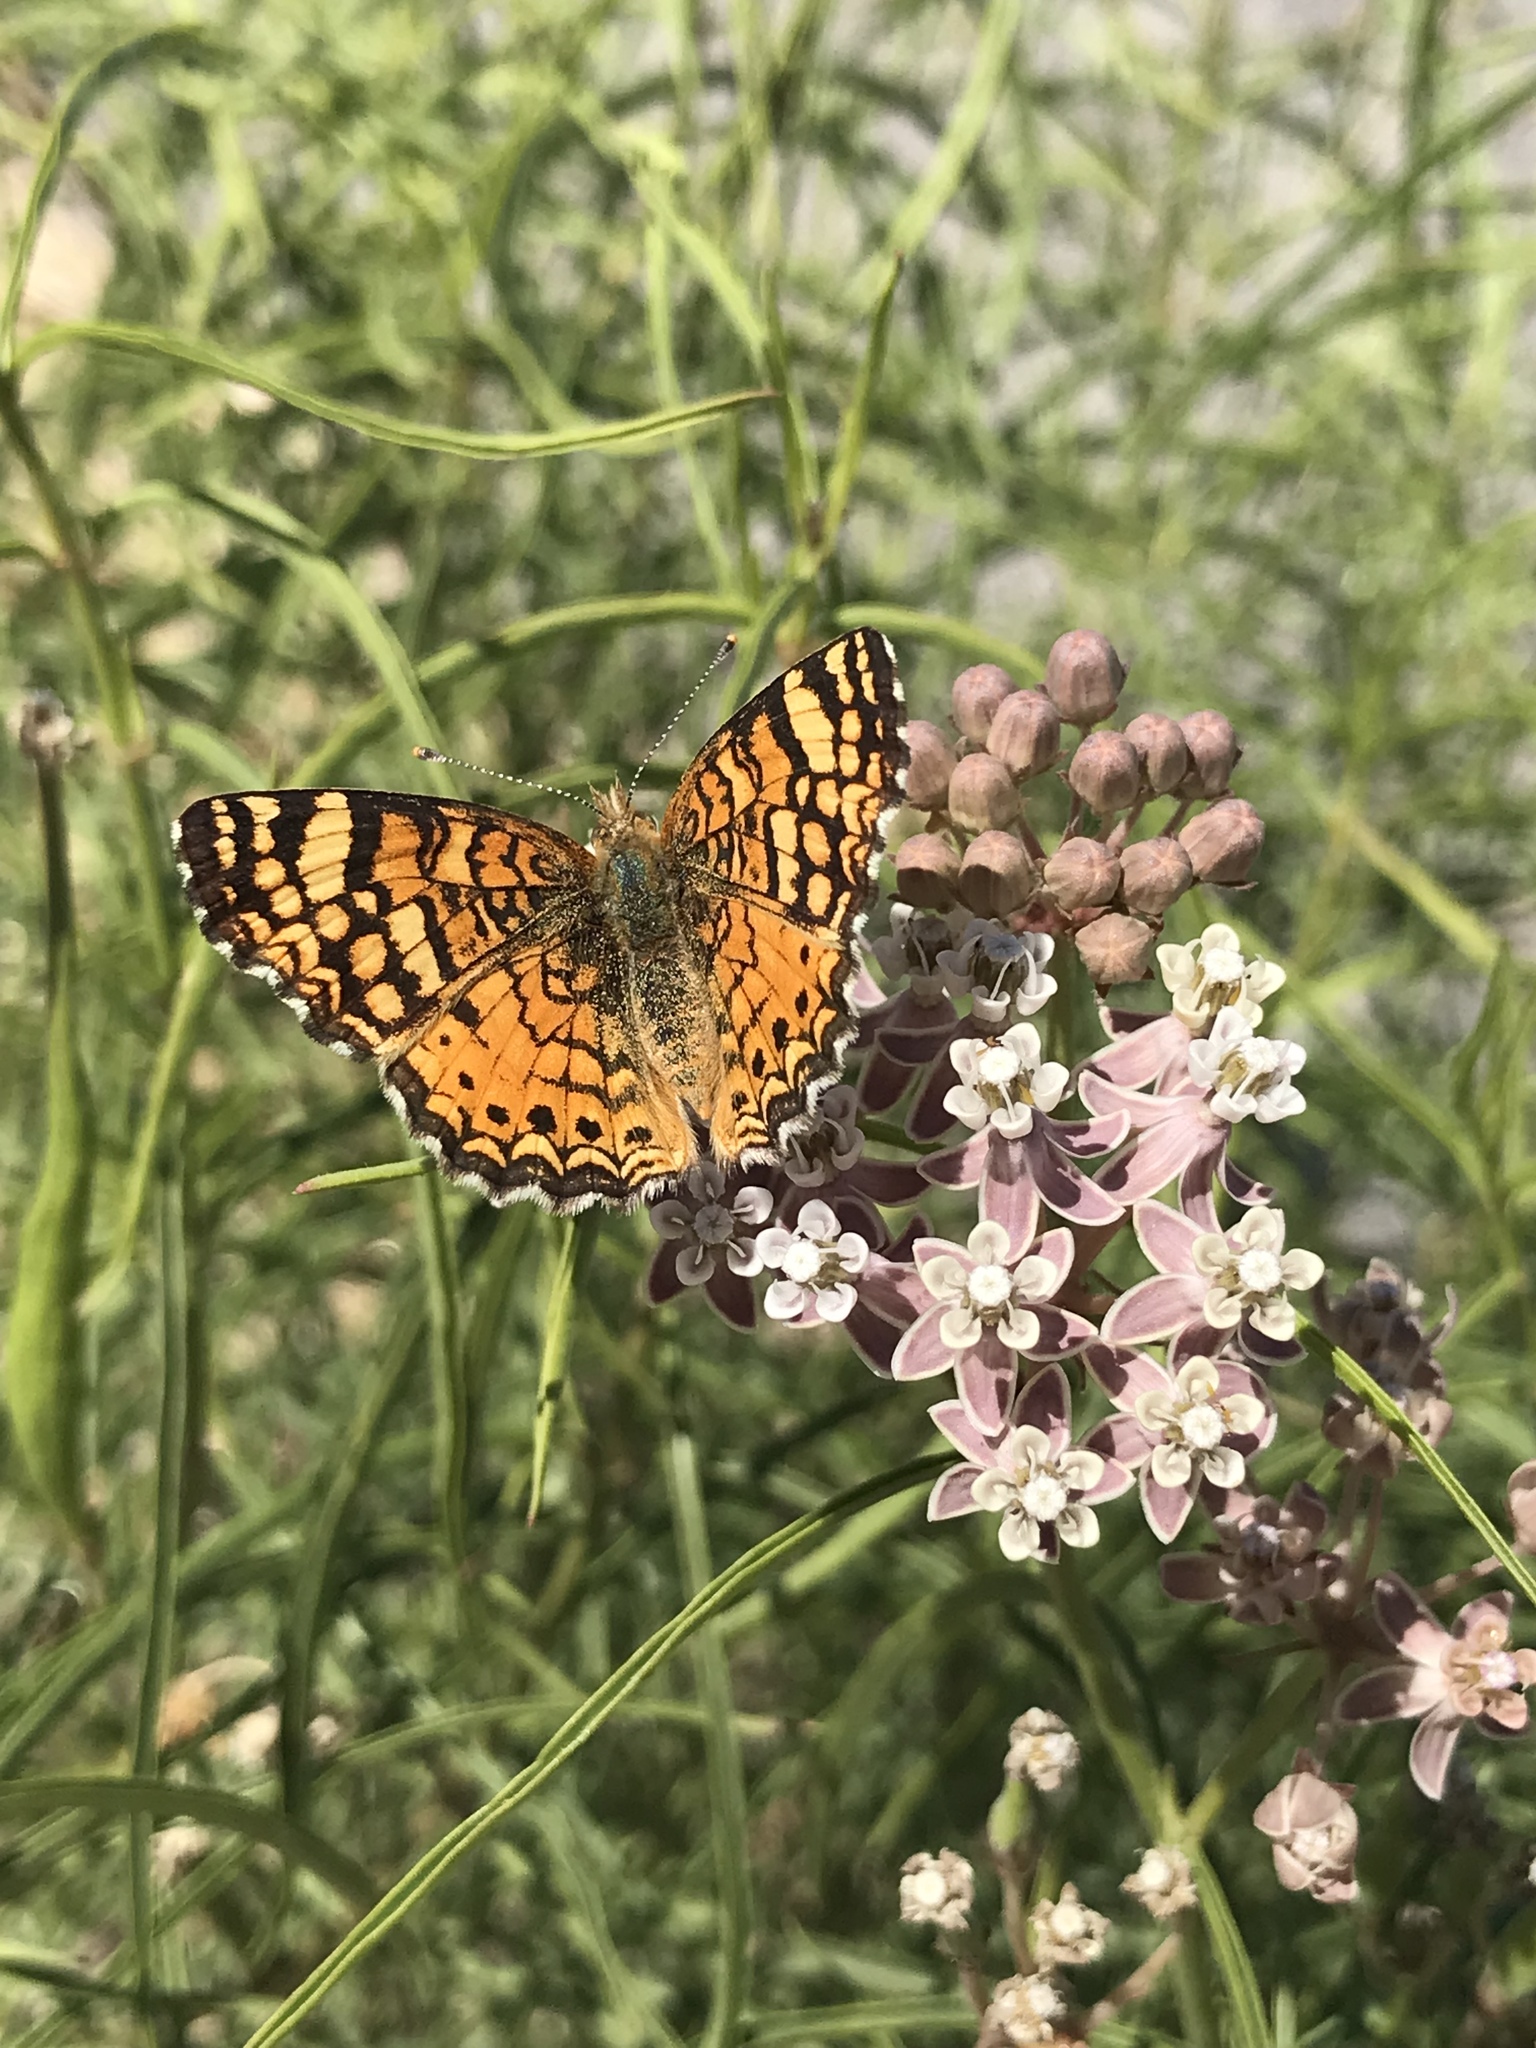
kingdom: Plantae
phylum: Tracheophyta
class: Magnoliopsida
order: Gentianales
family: Apocynaceae
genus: Asclepias
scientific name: Asclepias fascicularis
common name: Mexican milkweed
